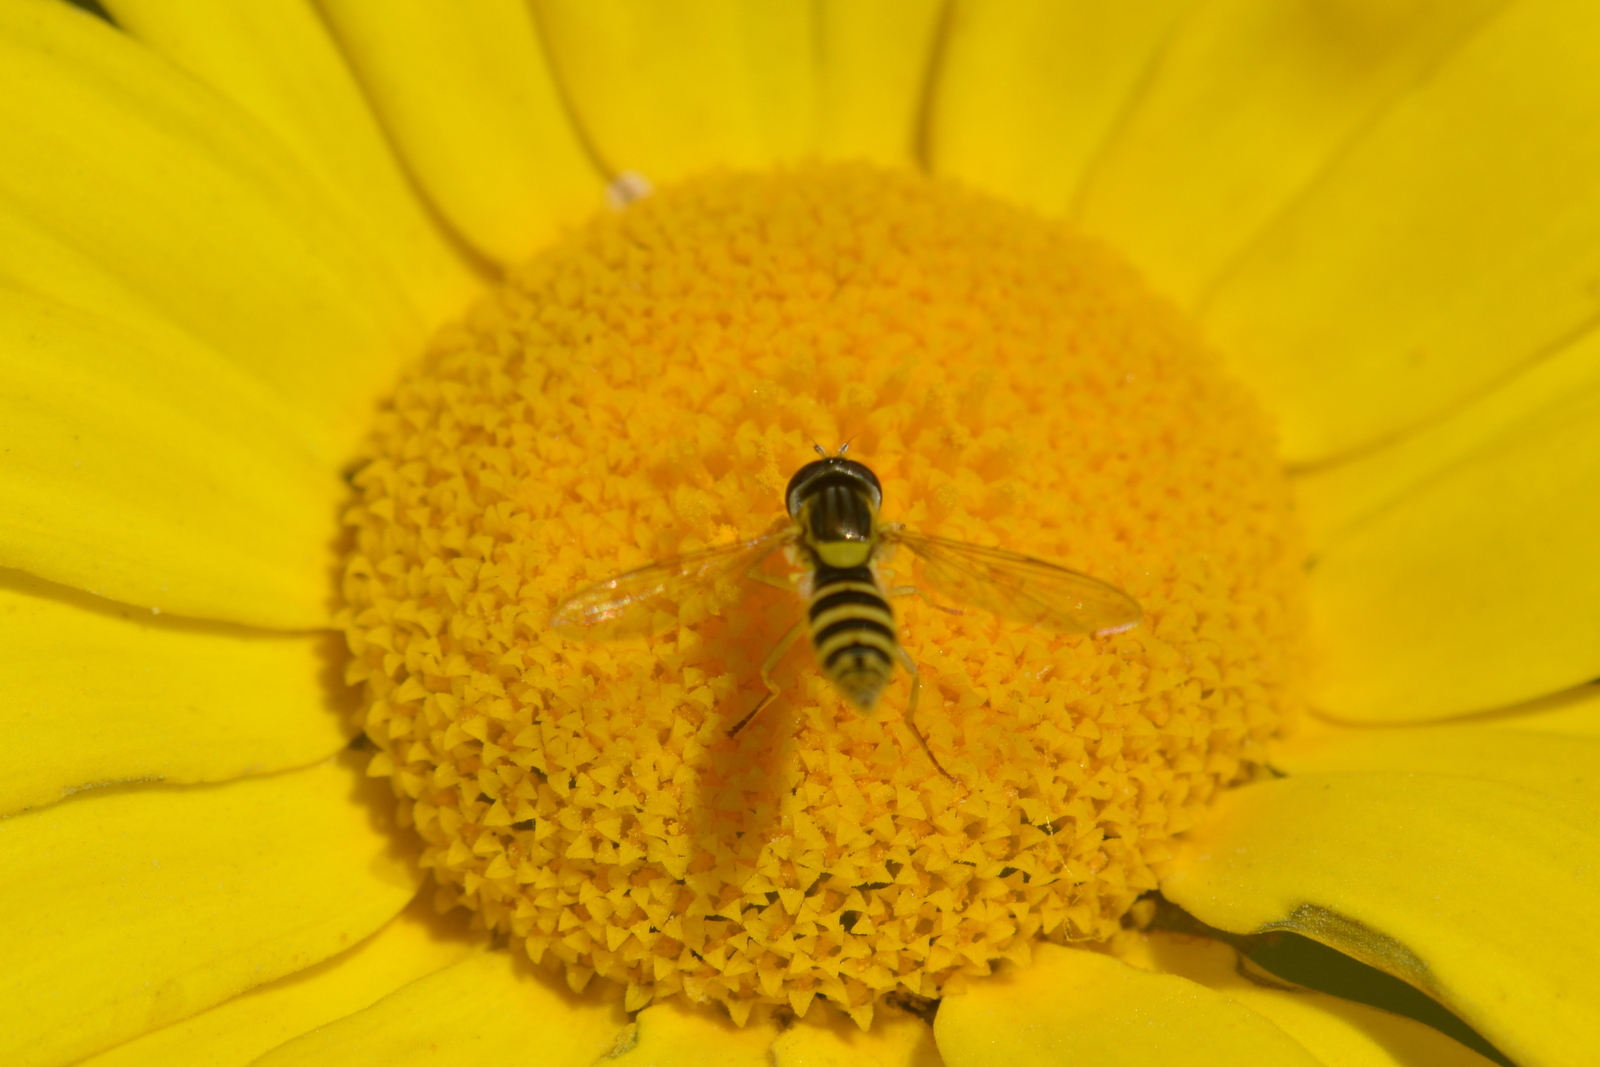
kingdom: Animalia
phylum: Arthropoda
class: Insecta
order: Diptera
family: Syrphidae
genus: Sphaerophoria
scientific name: Sphaerophoria
